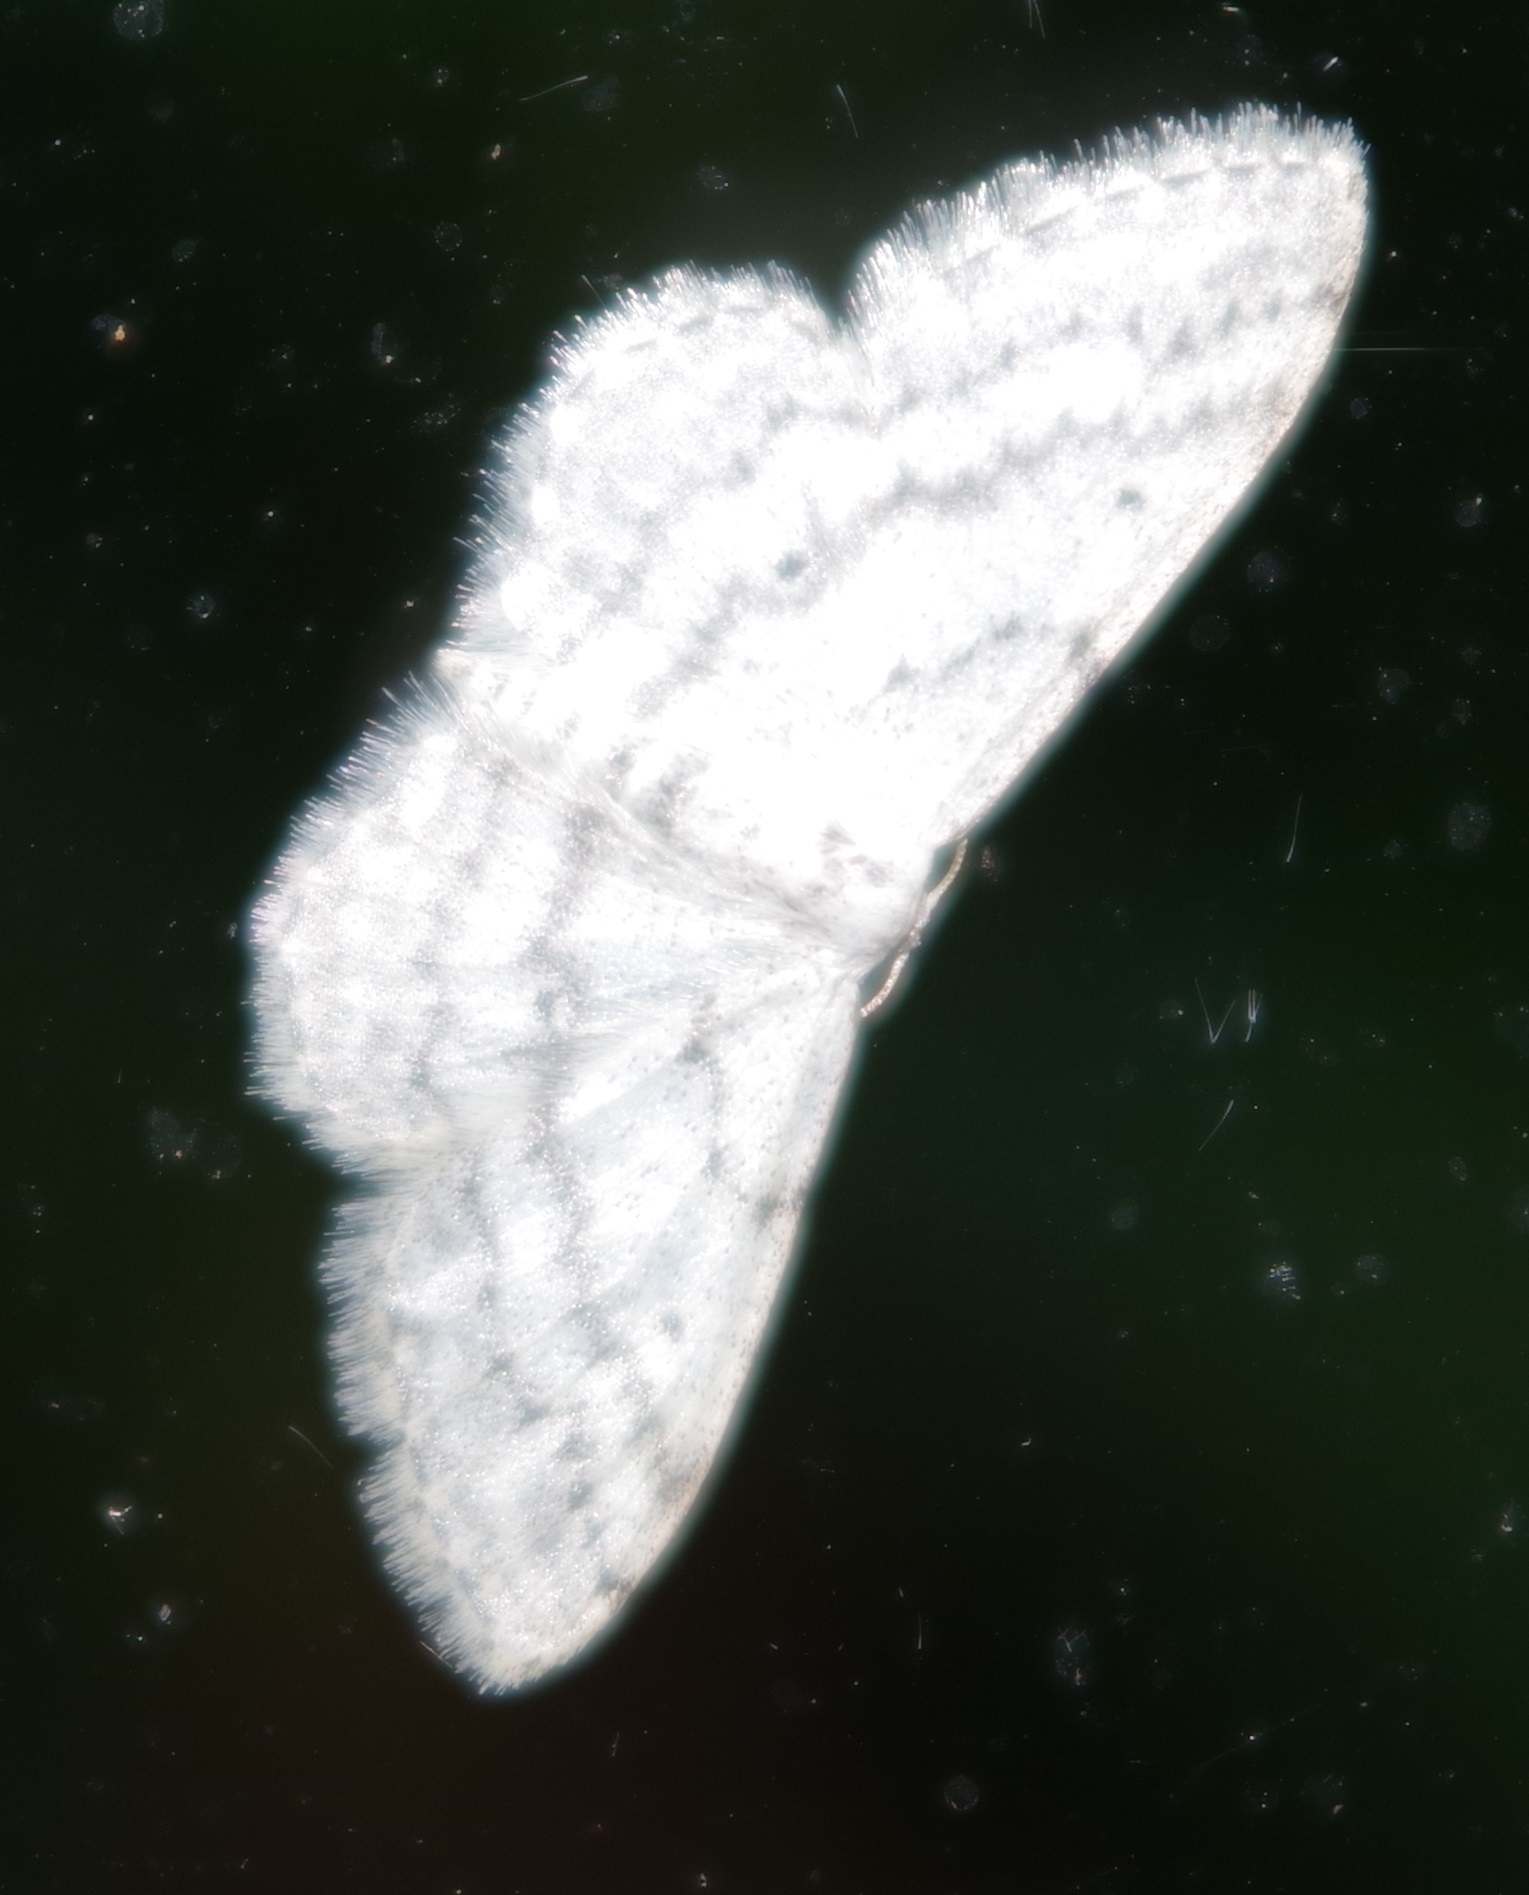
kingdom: Animalia
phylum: Arthropoda
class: Insecta
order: Lepidoptera
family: Geometridae
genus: Idaea
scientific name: Idaea seriata
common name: Small dusty wave
